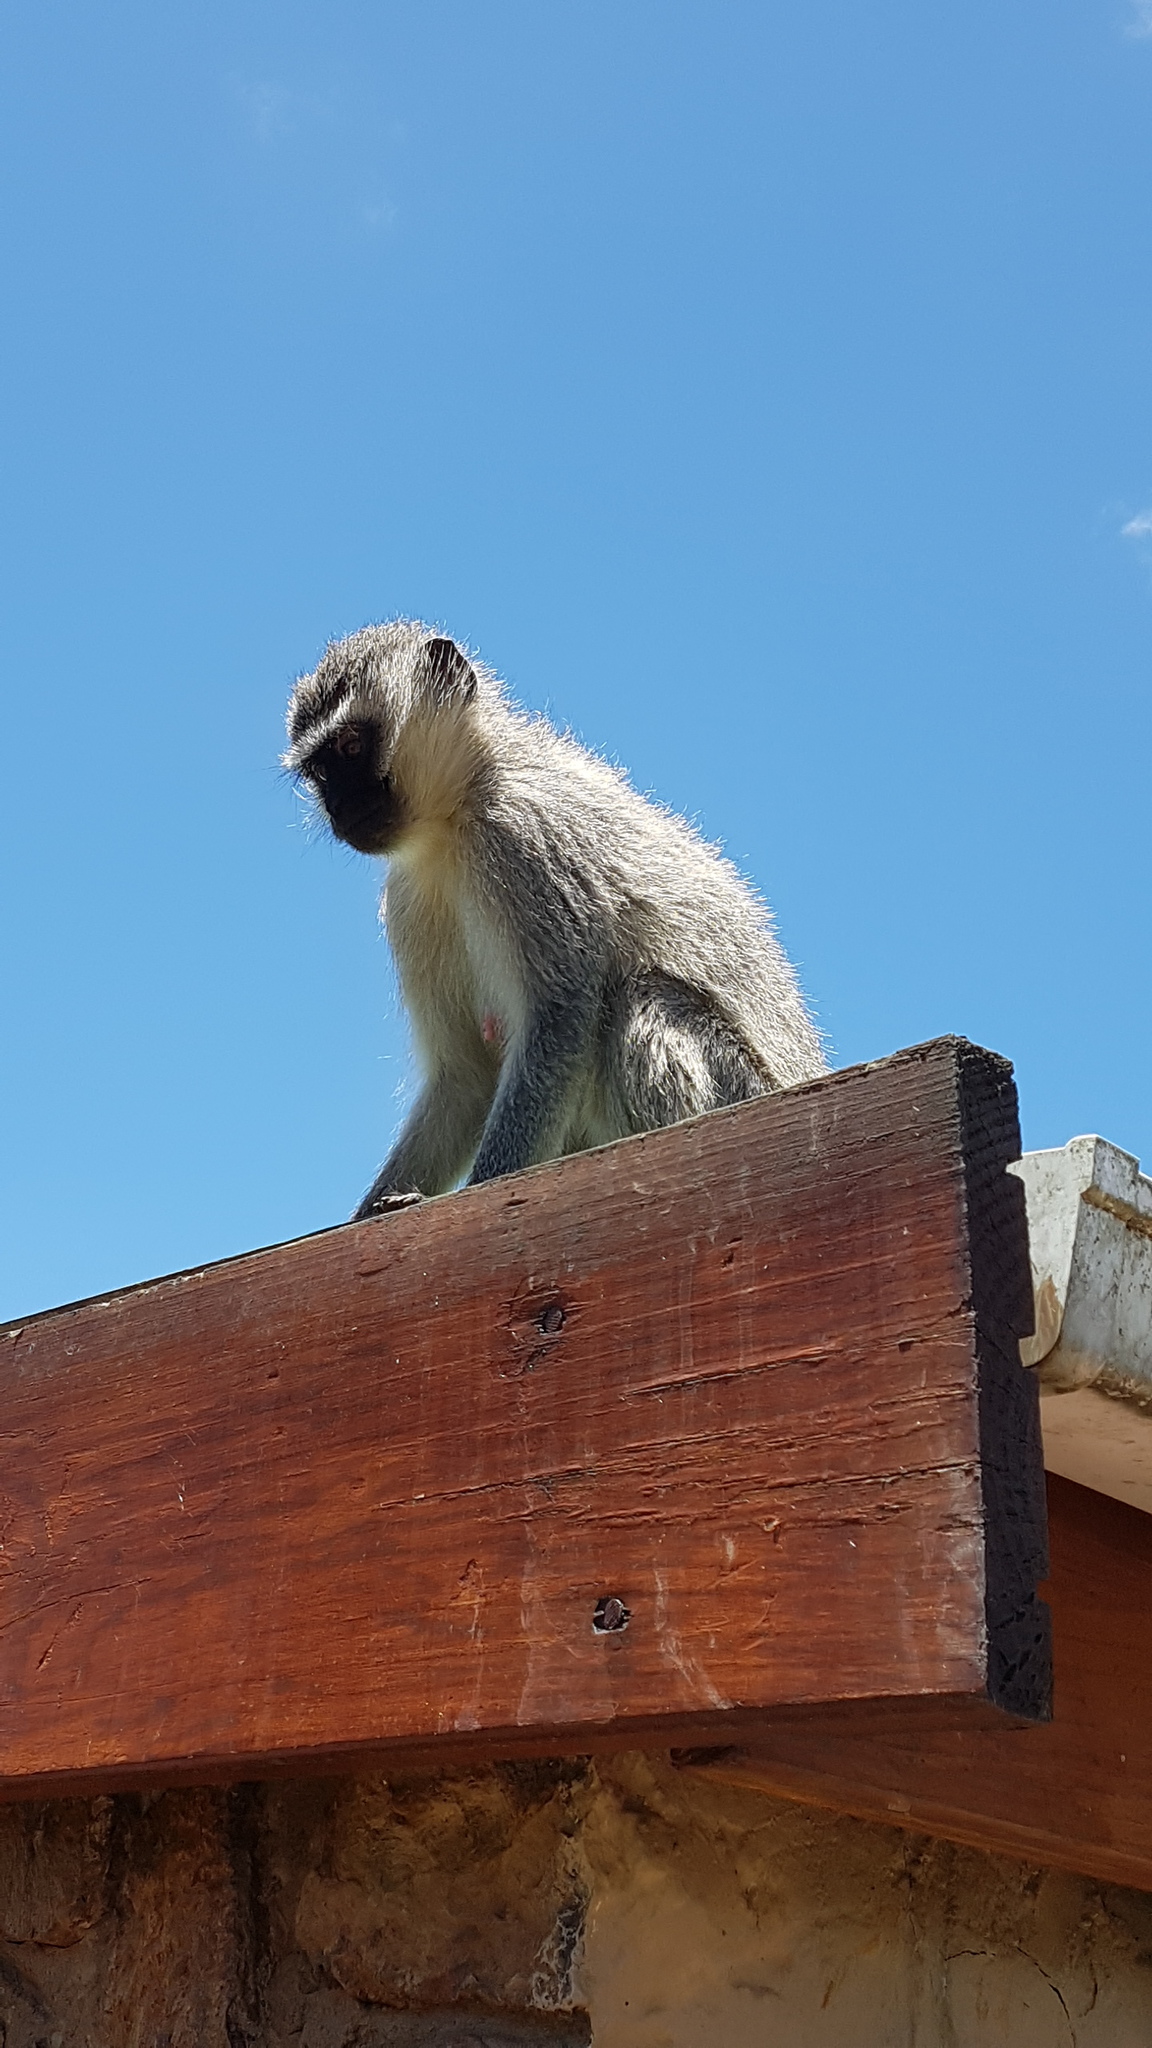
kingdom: Animalia
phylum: Chordata
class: Mammalia
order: Primates
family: Cercopithecidae
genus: Chlorocebus
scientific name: Chlorocebus pygerythrus
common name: Vervet monkey
